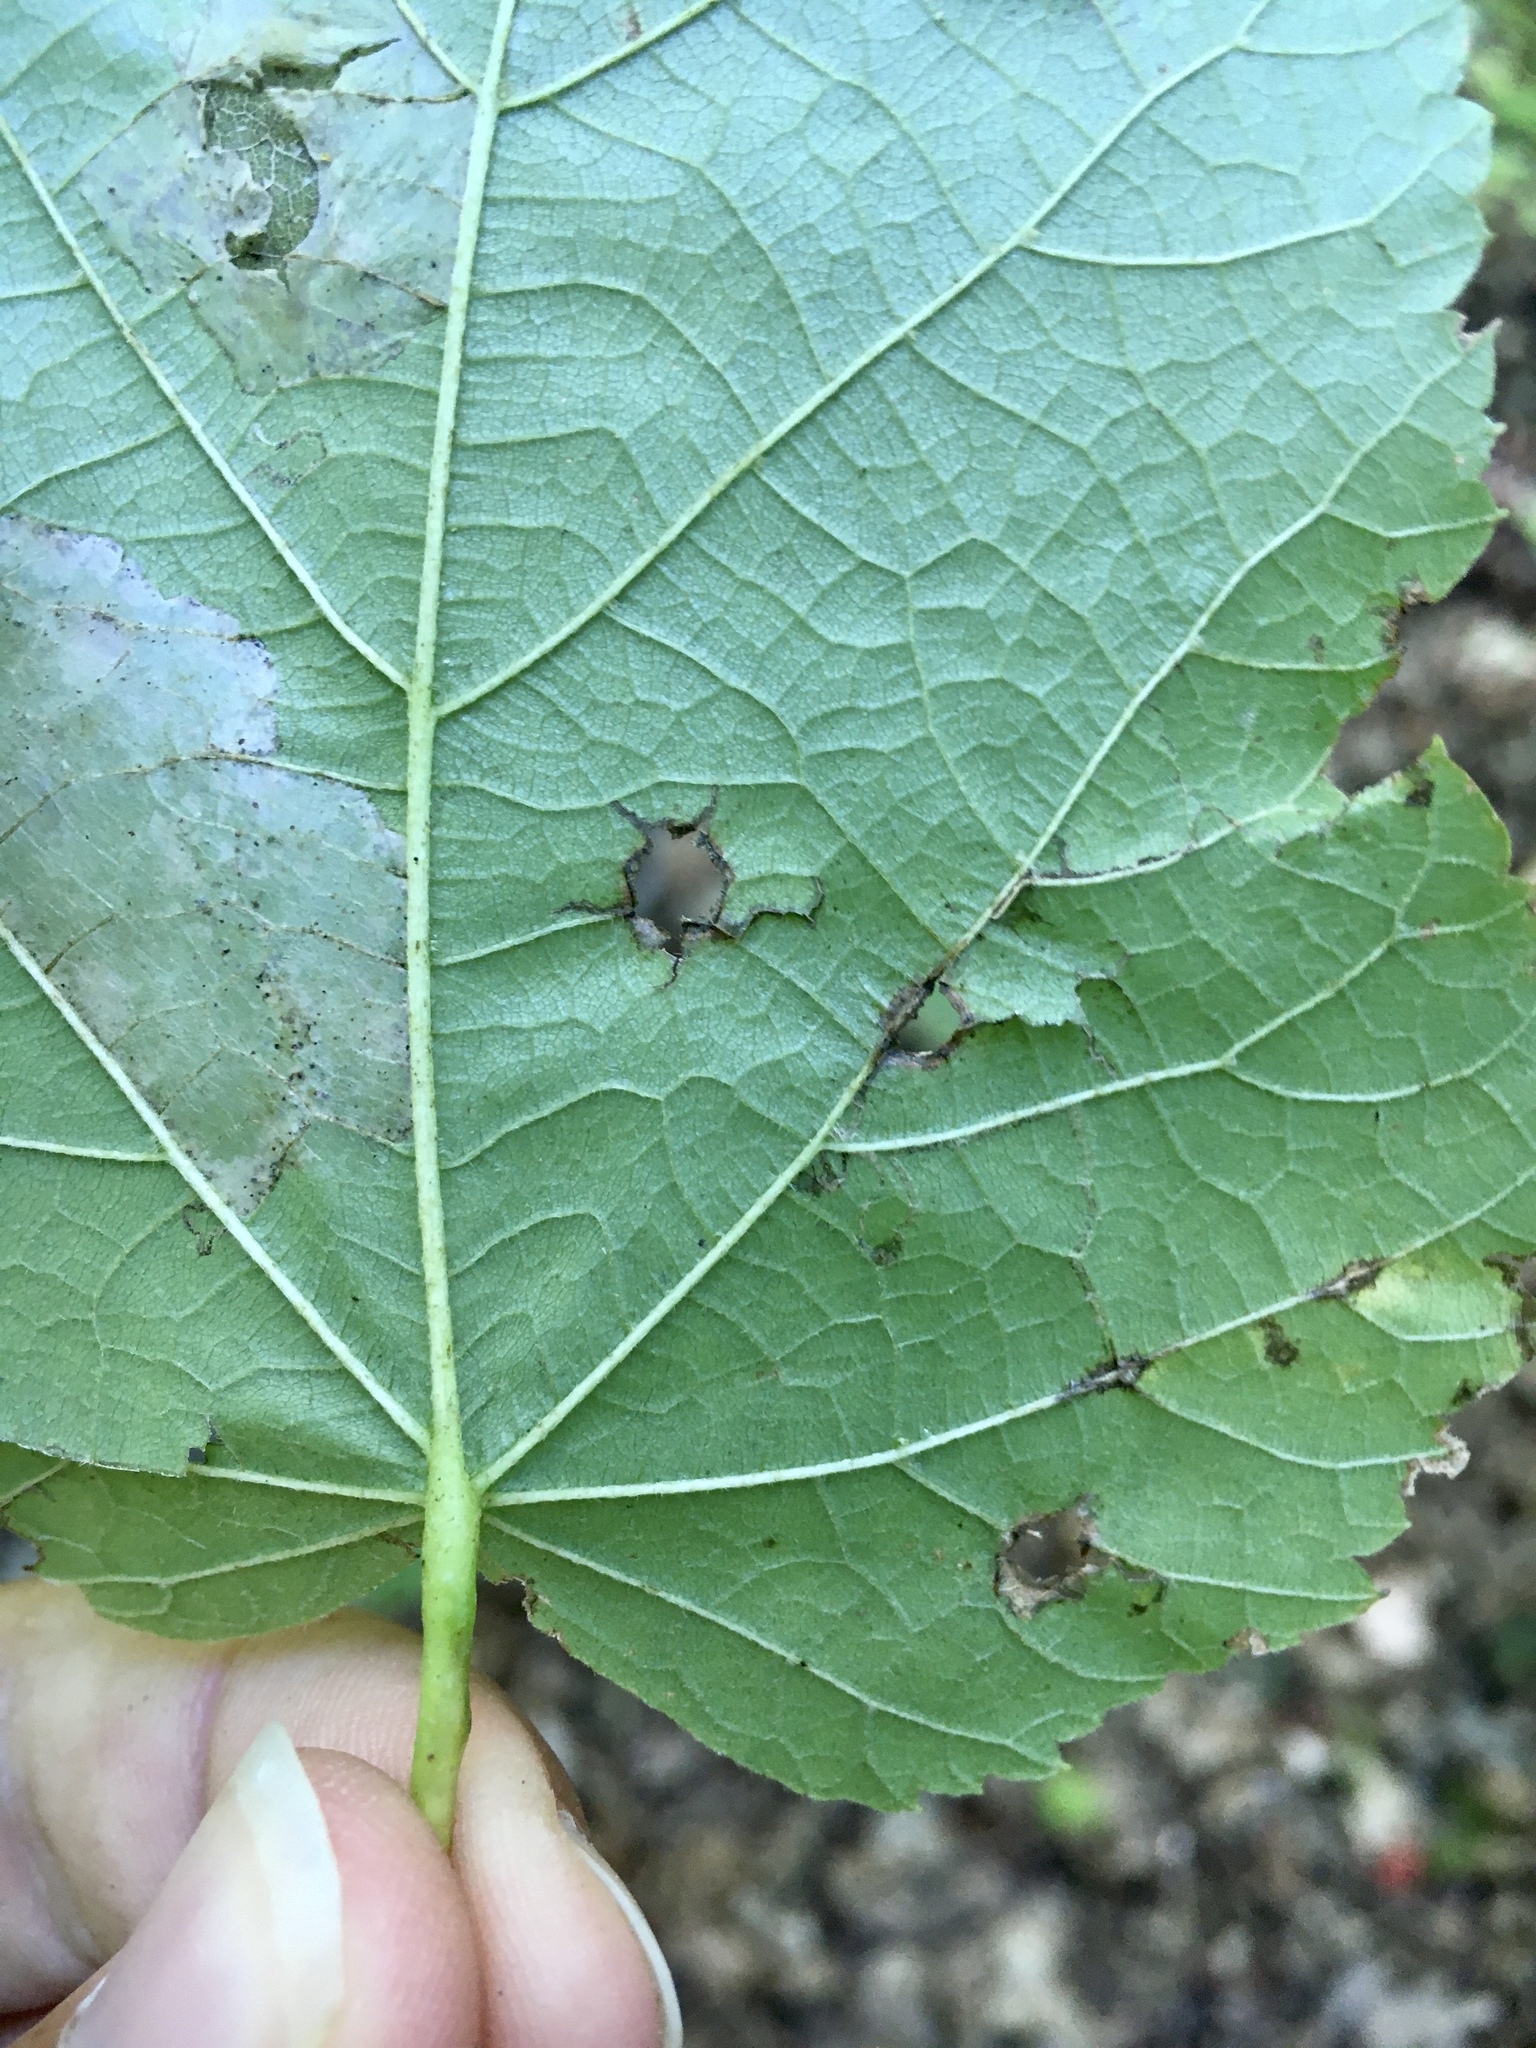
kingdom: Animalia
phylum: Arthropoda
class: Insecta
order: Lepidoptera
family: Nepticulidae
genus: Stigmella
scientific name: Stigmella argentifasciella
